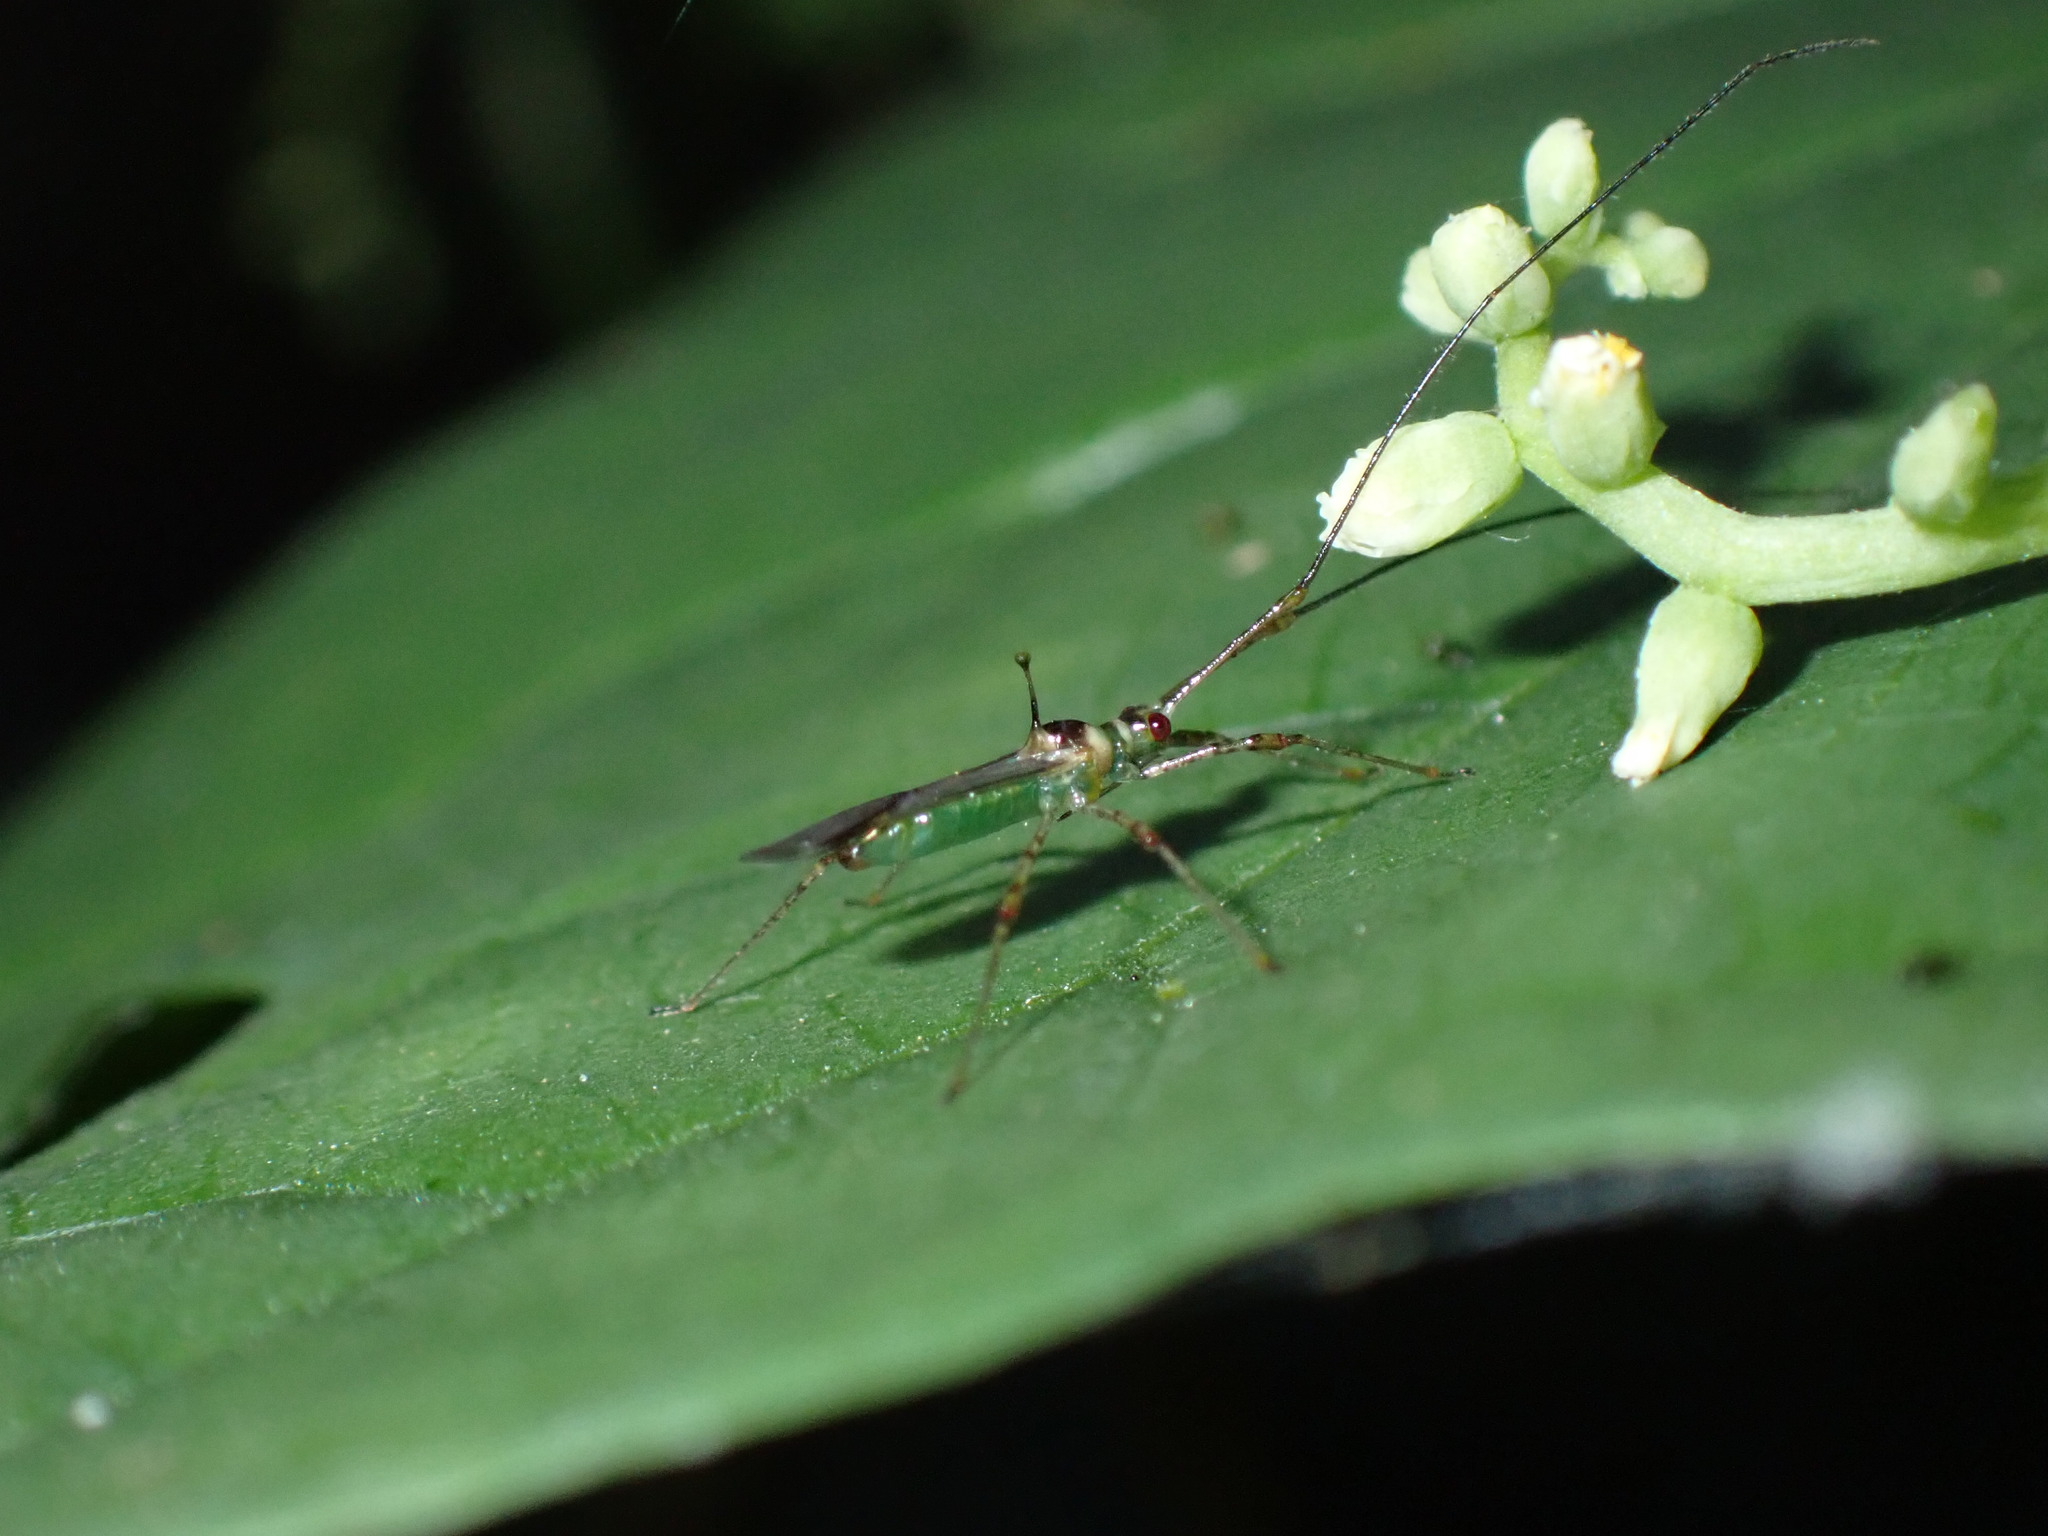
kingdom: Animalia
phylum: Arthropoda
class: Insecta
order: Hemiptera
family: Miridae
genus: Helopeltis
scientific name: Helopeltis theivora
